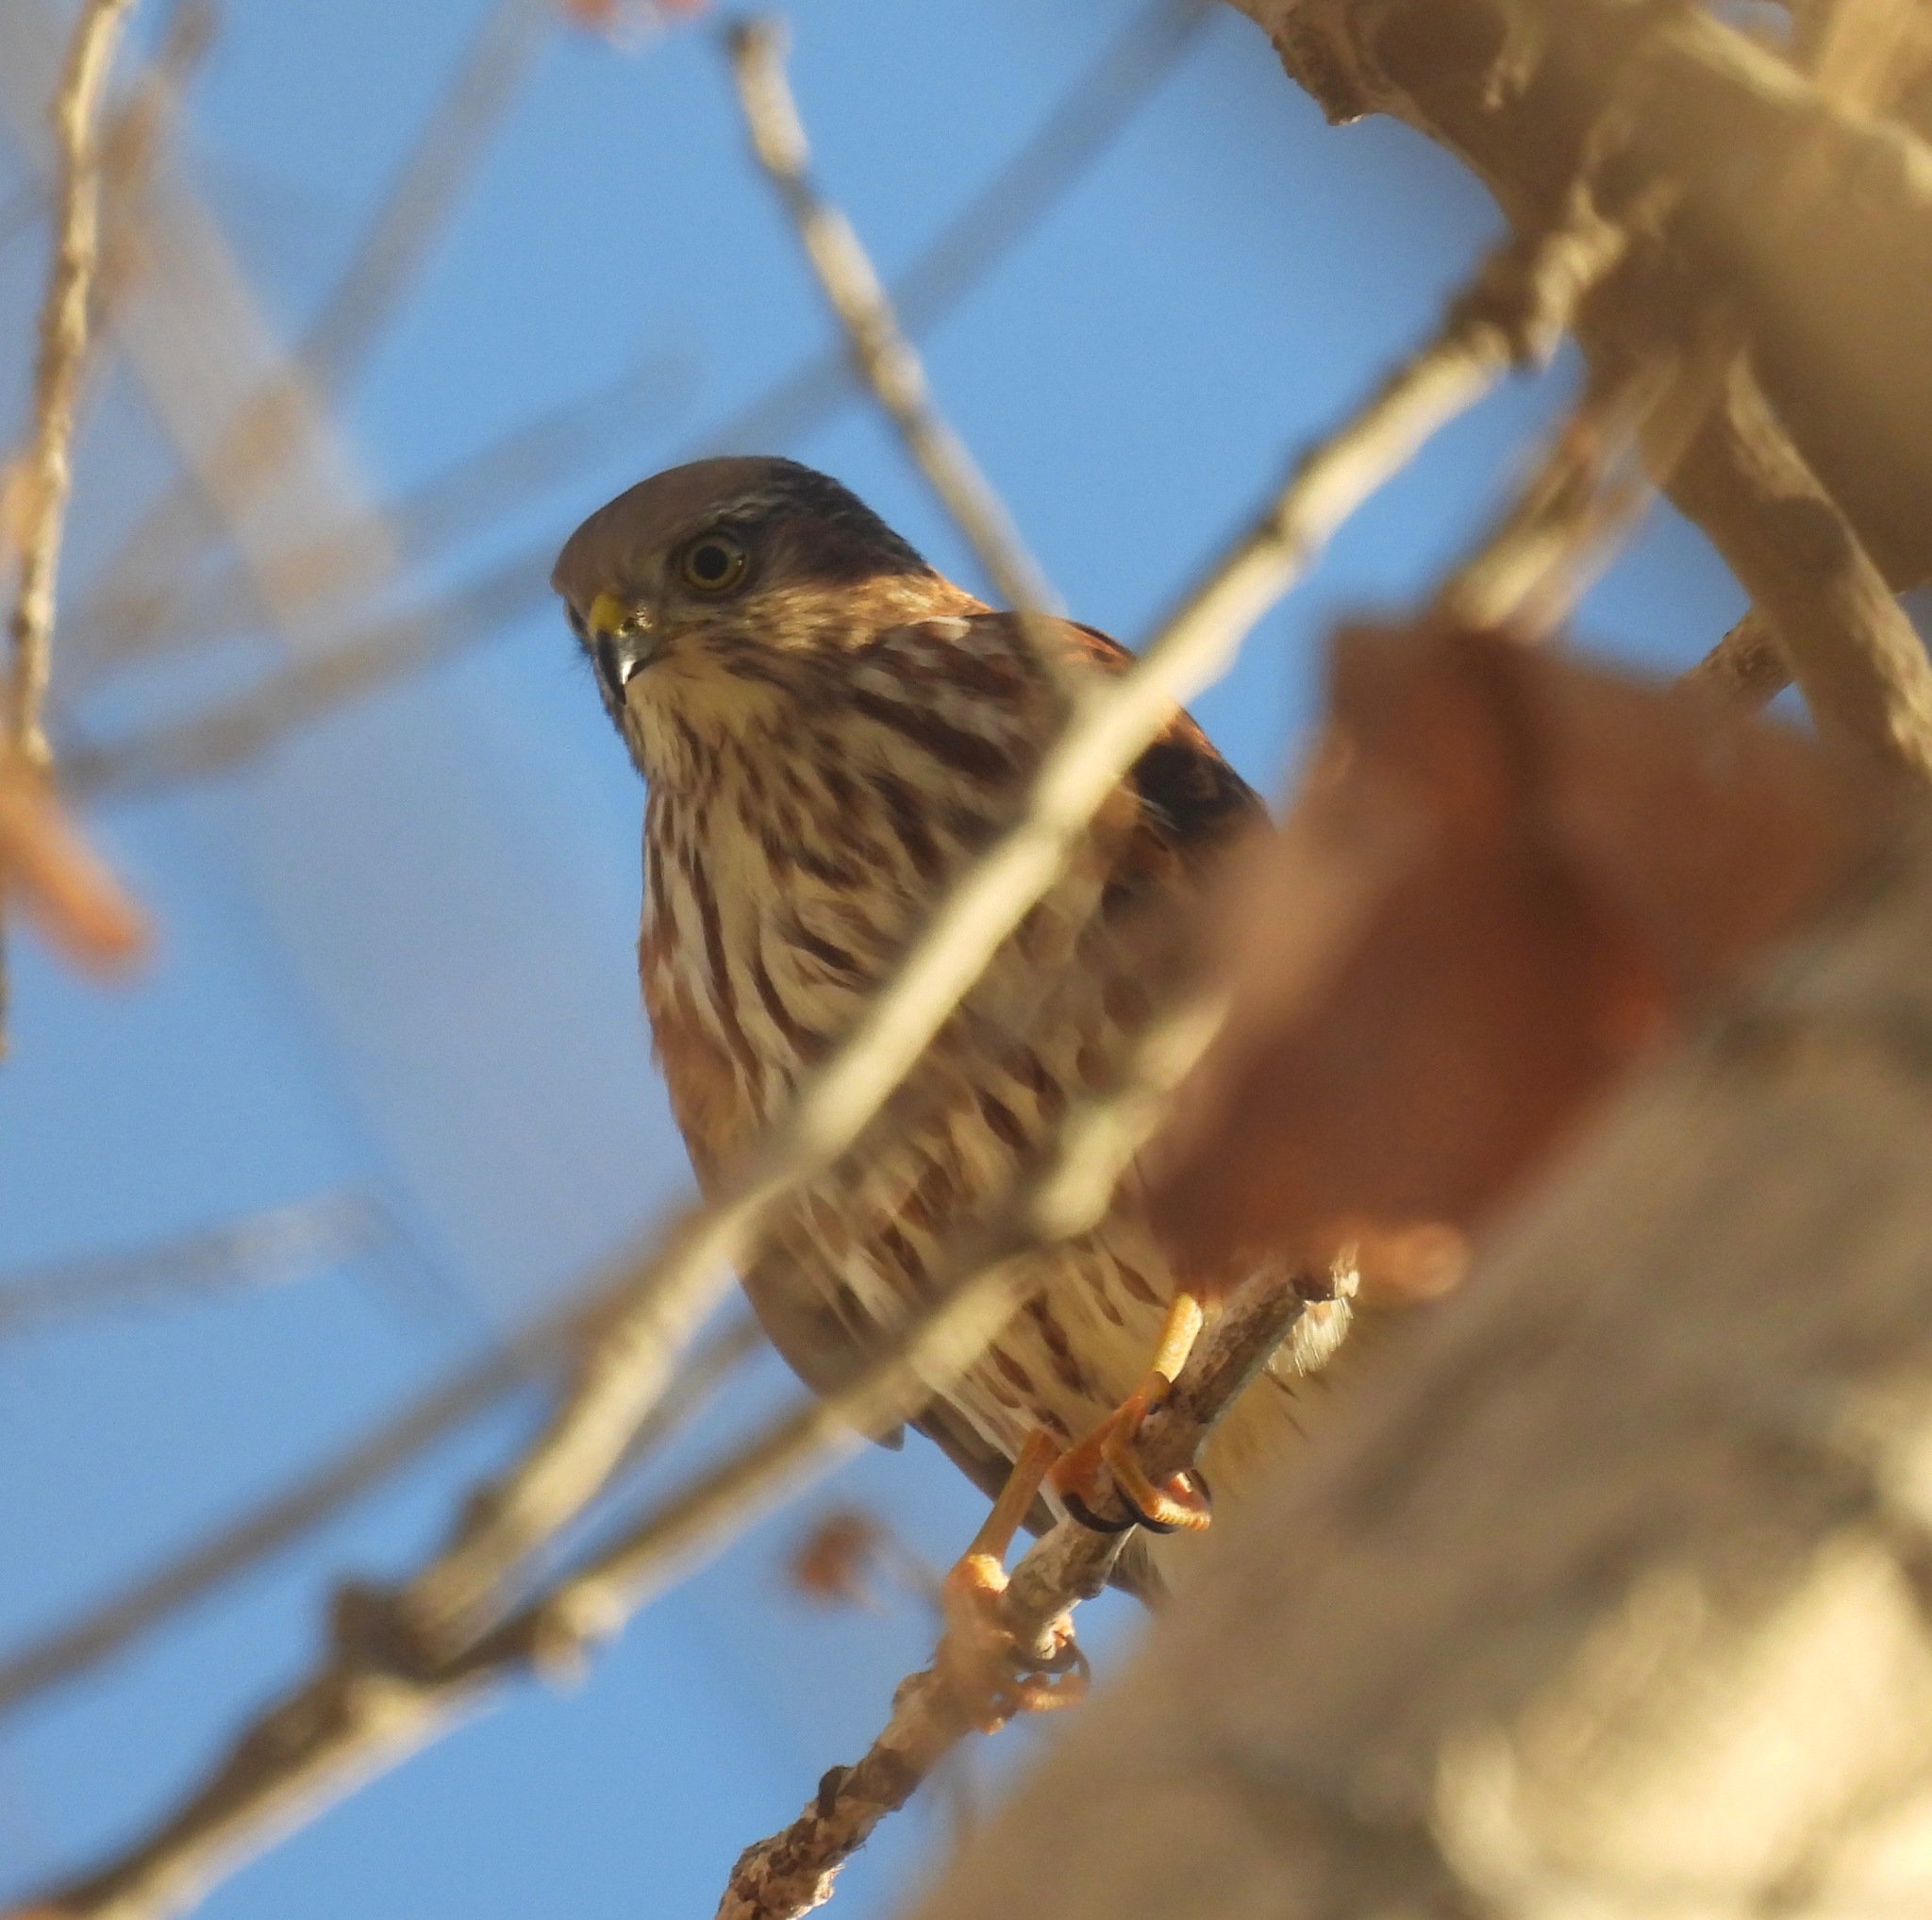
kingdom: Animalia
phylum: Chordata
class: Aves
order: Accipitriformes
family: Accipitridae
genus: Accipiter
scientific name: Accipiter striatus
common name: Sharp-shinned hawk
